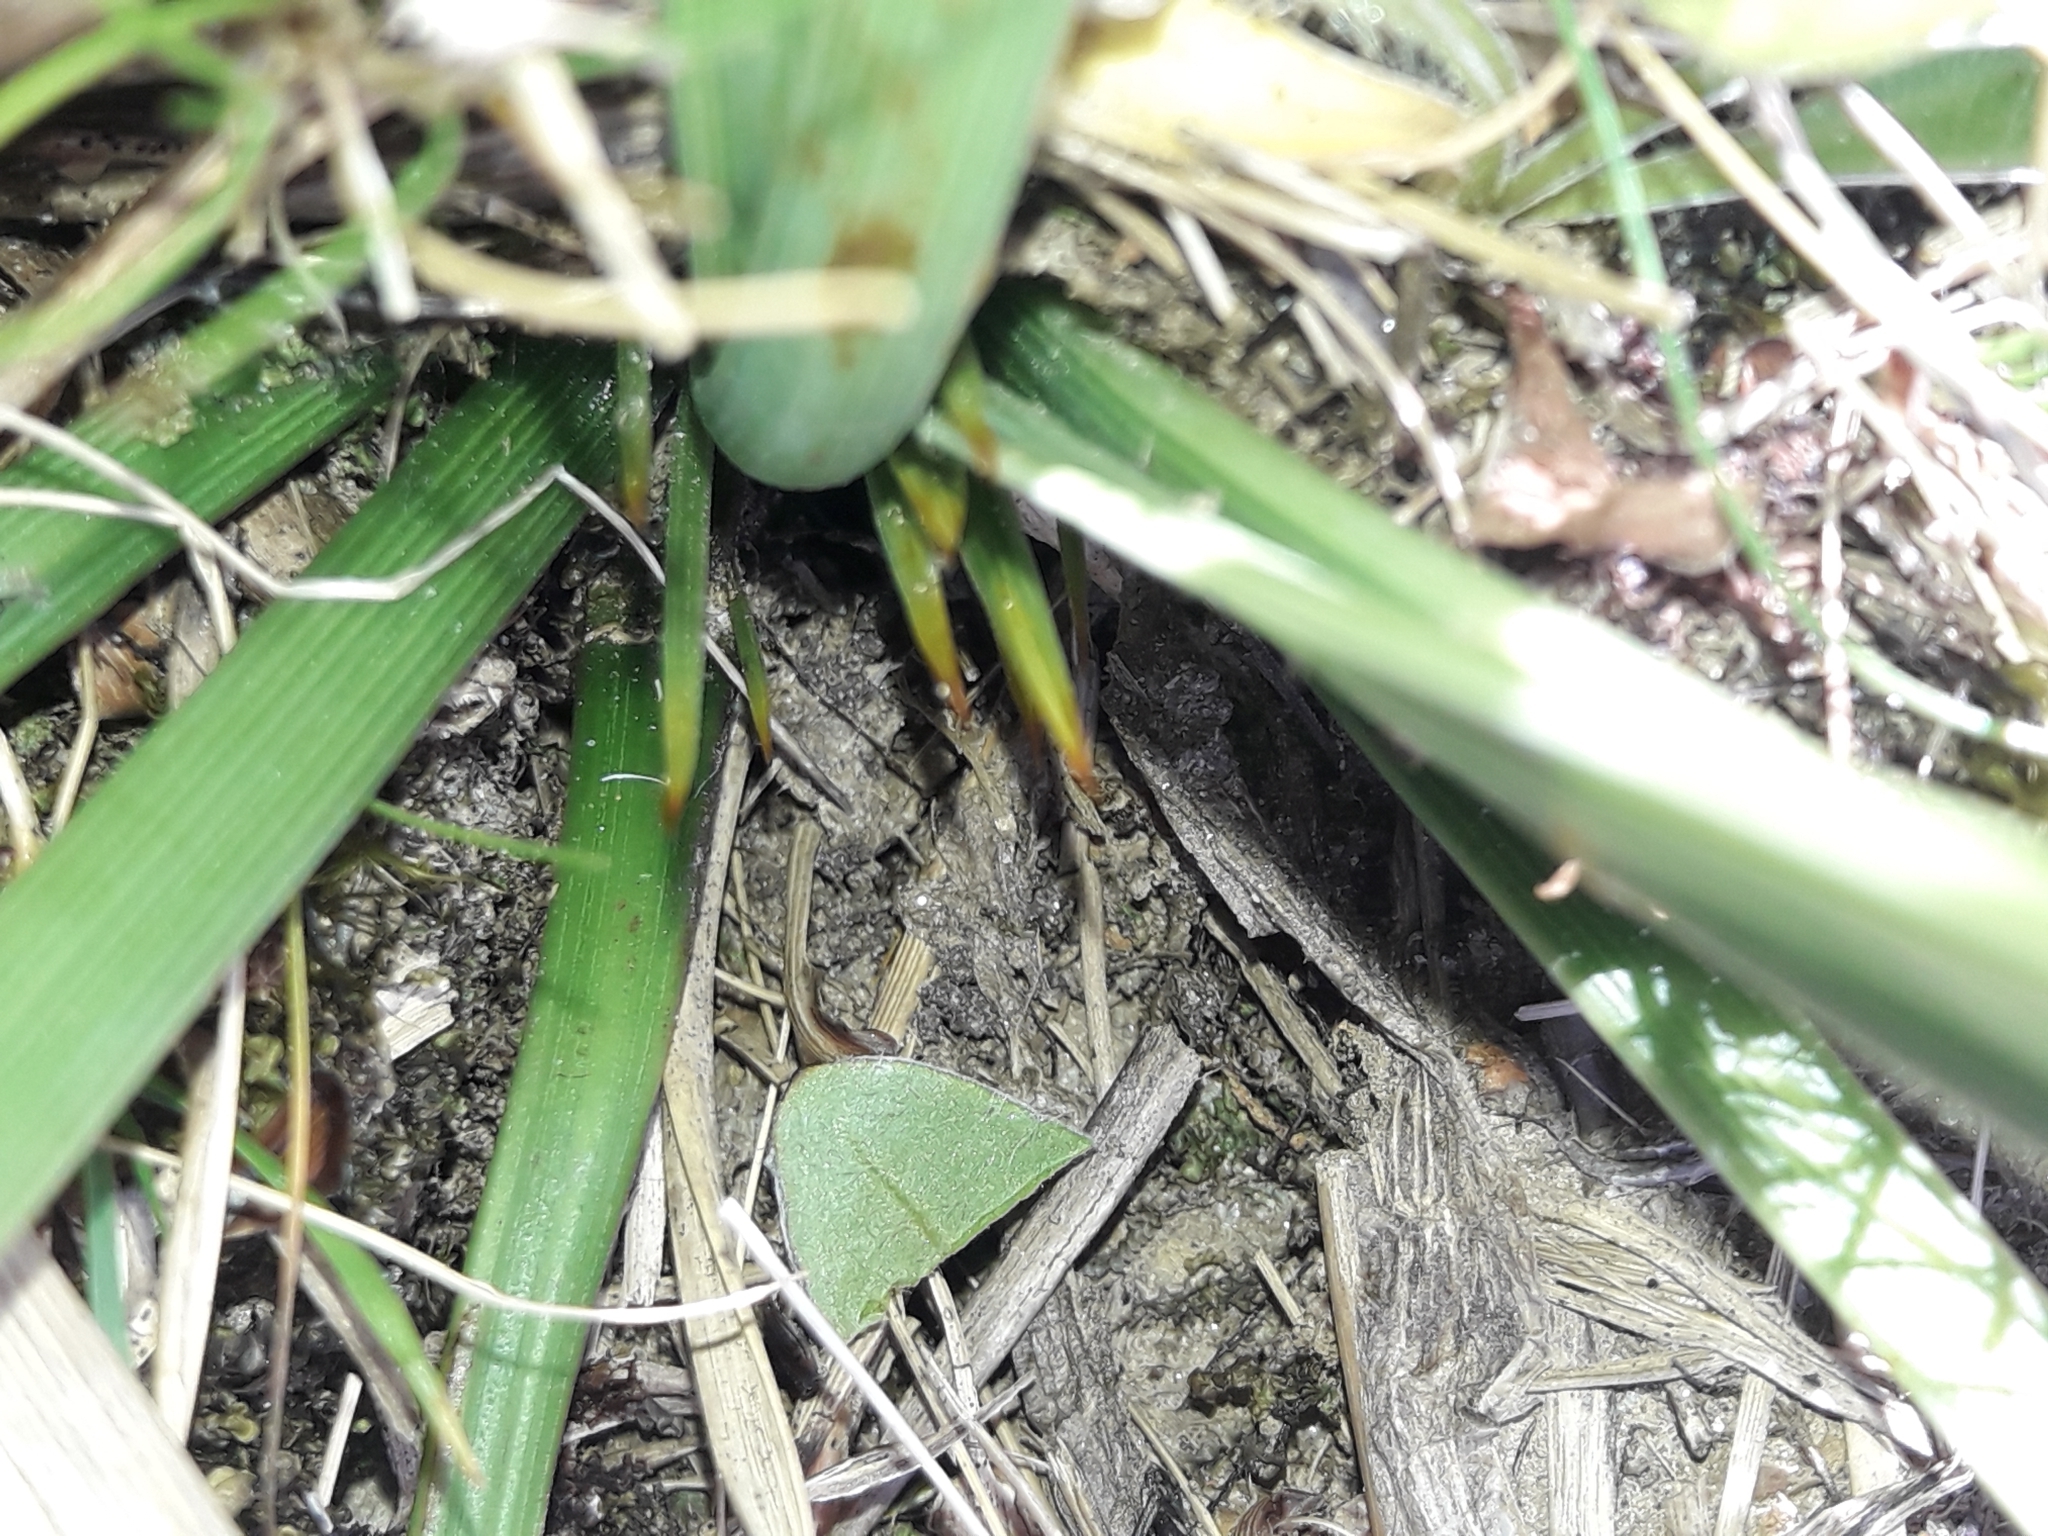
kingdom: Plantae
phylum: Tracheophyta
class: Magnoliopsida
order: Apiales
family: Apiaceae
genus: Aciphylla
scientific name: Aciphylla crenulata
